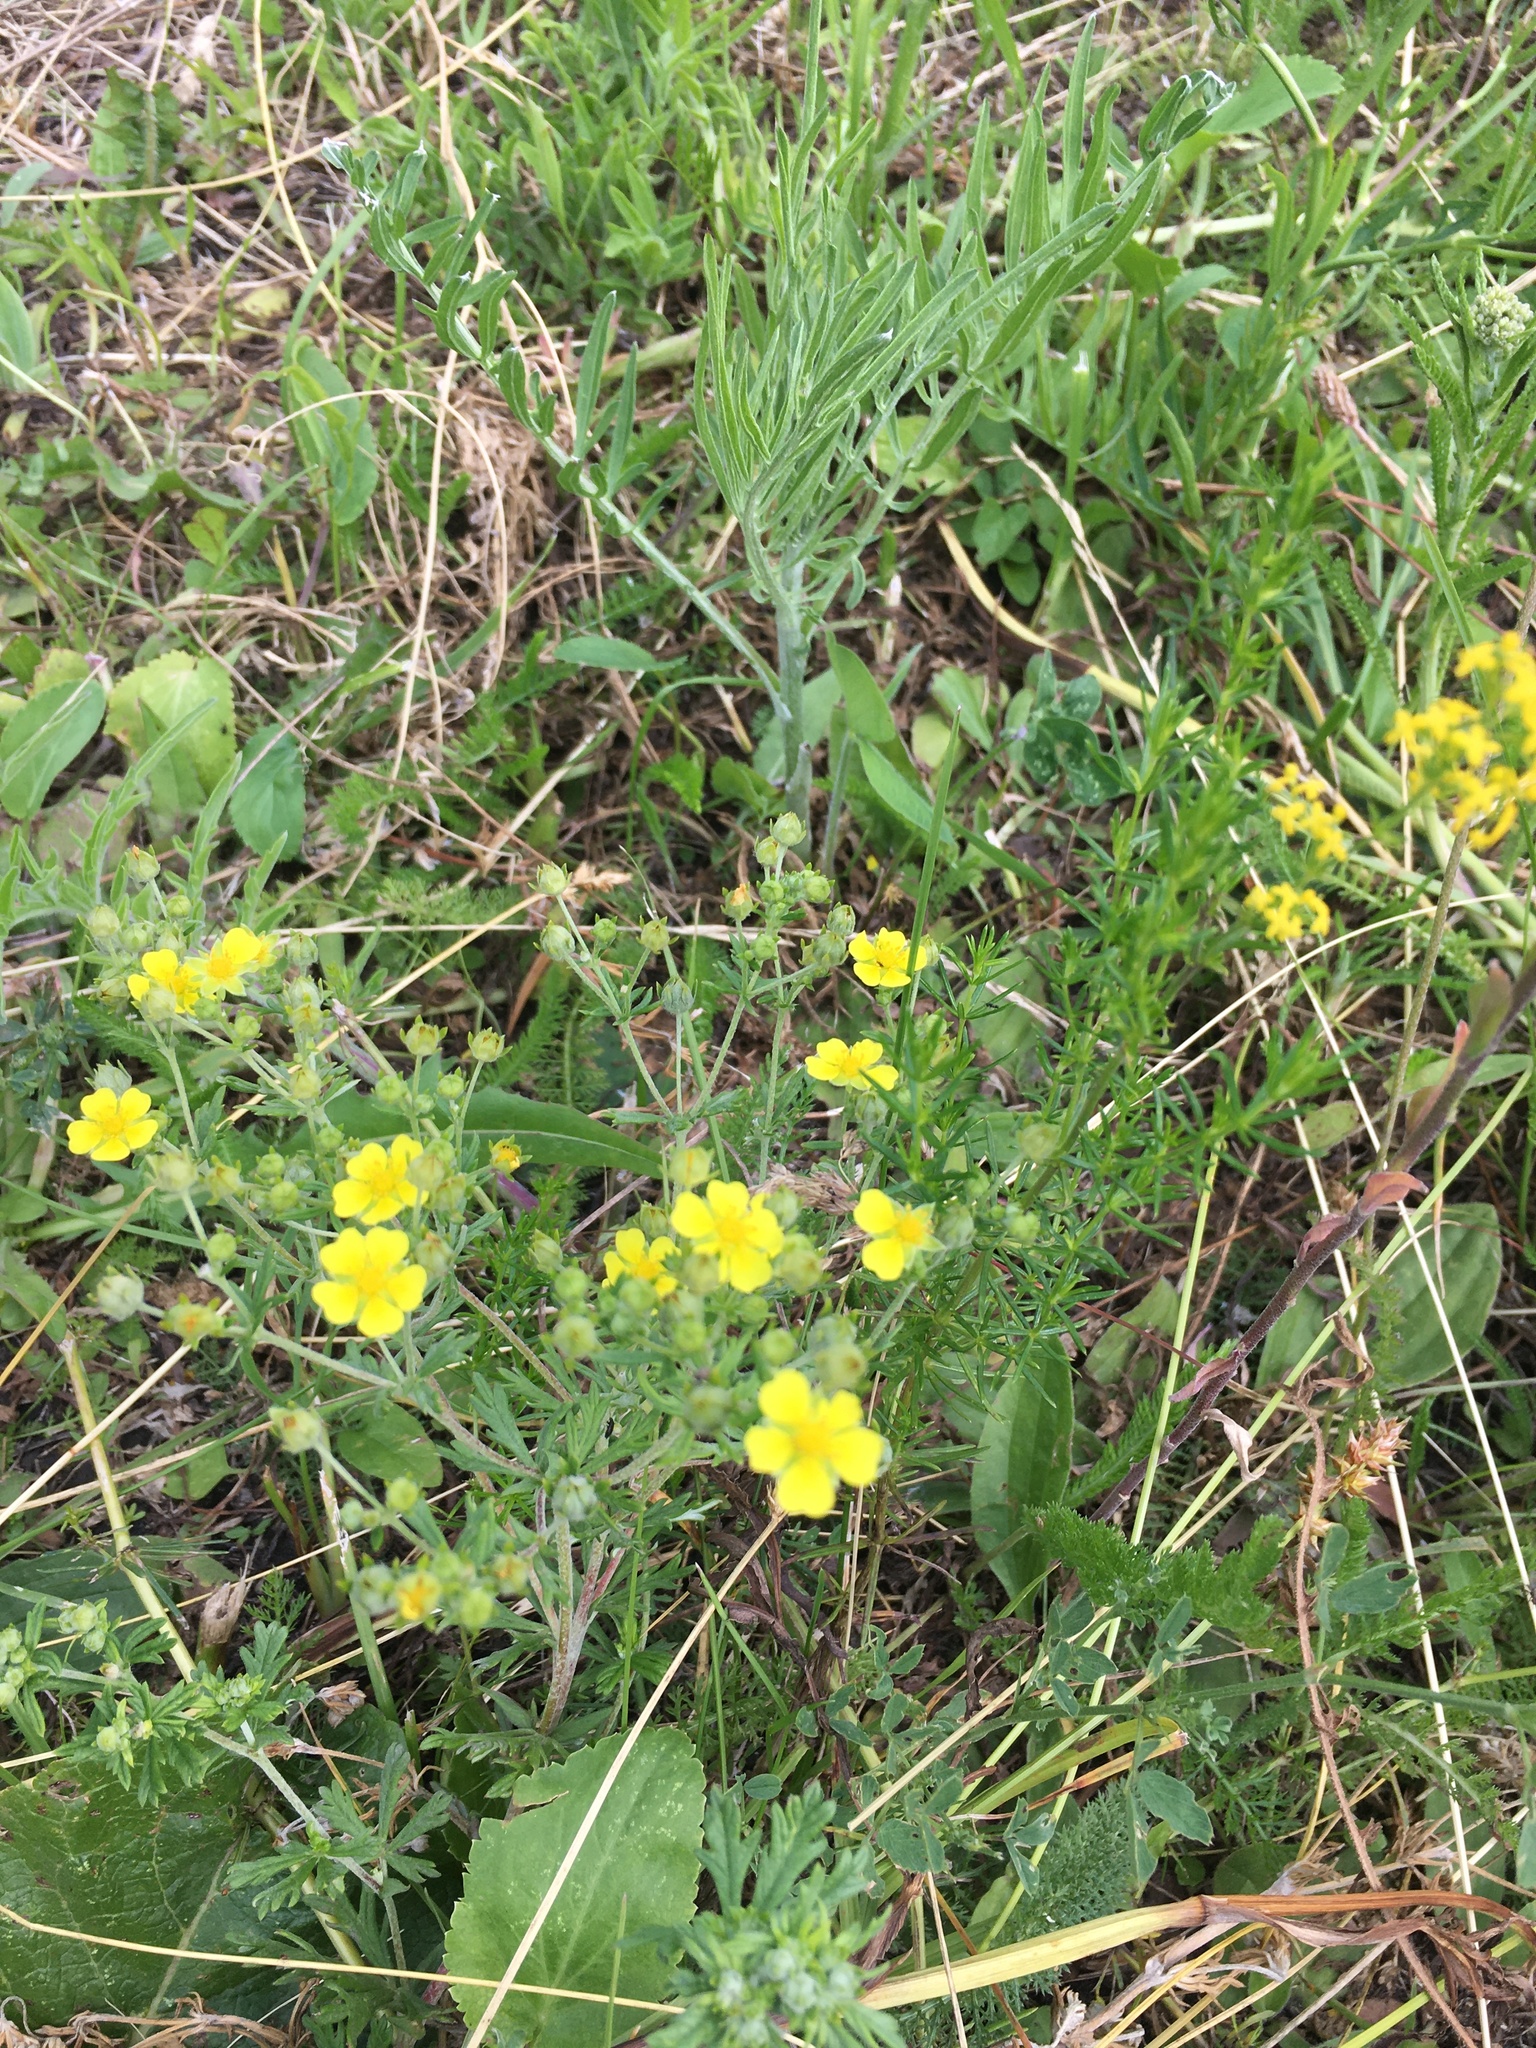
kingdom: Plantae
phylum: Tracheophyta
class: Magnoliopsida
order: Rosales
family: Rosaceae
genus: Potentilla
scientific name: Potentilla argentea
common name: Hoary cinquefoil
